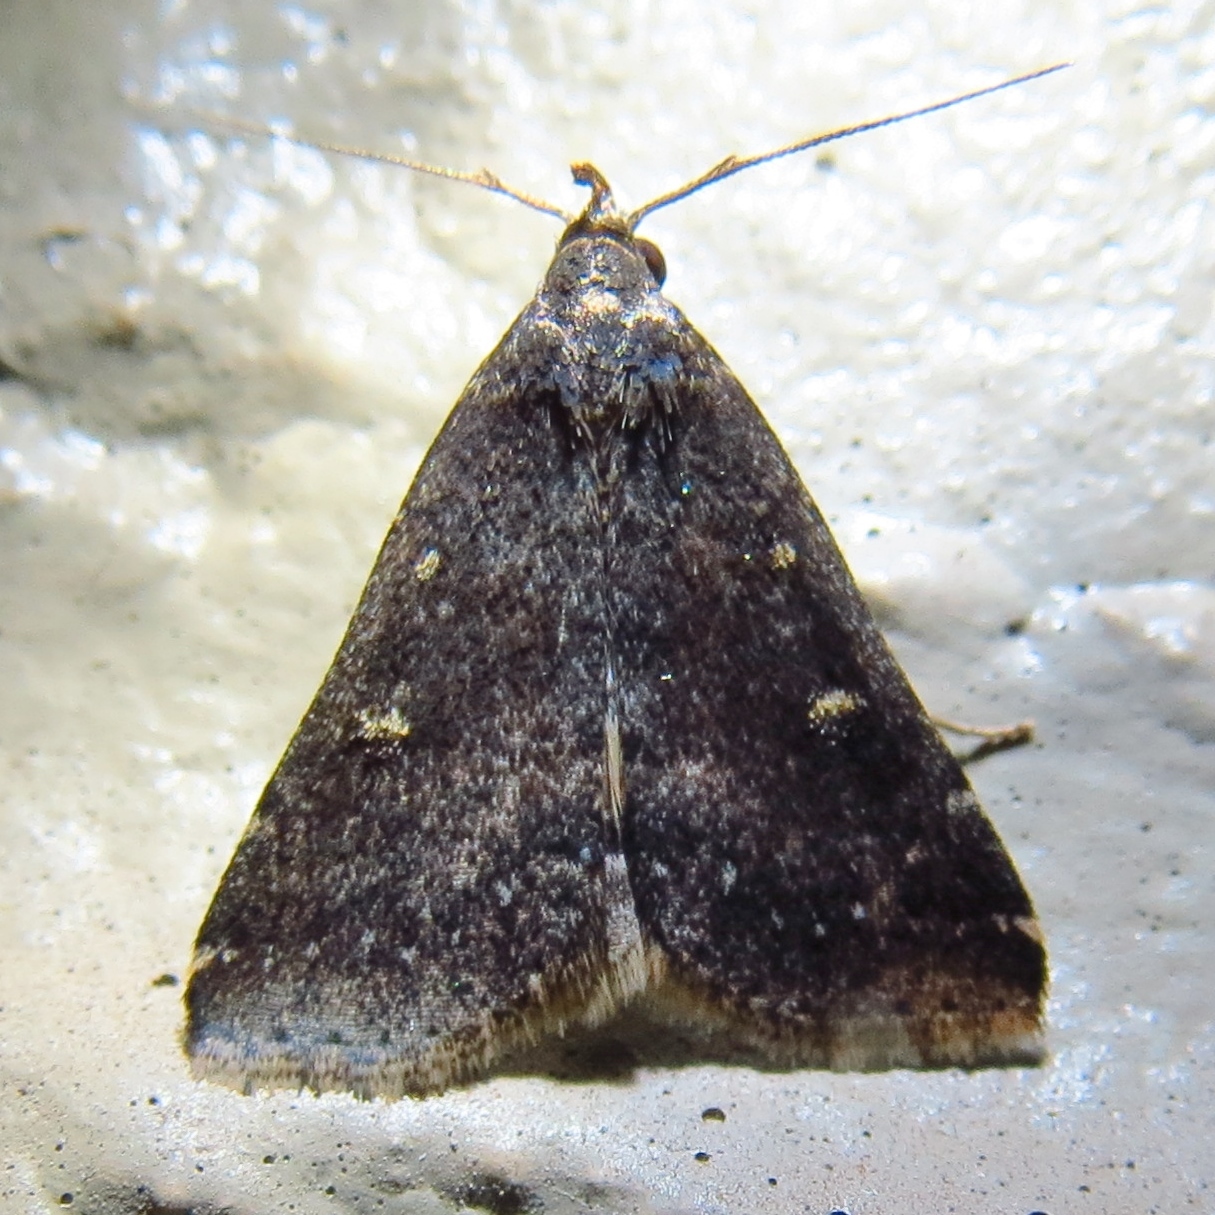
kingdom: Animalia
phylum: Arthropoda
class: Insecta
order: Lepidoptera
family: Erebidae
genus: Tetanolita
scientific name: Tetanolita mynesalis
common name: Smoky tetanolita moth
